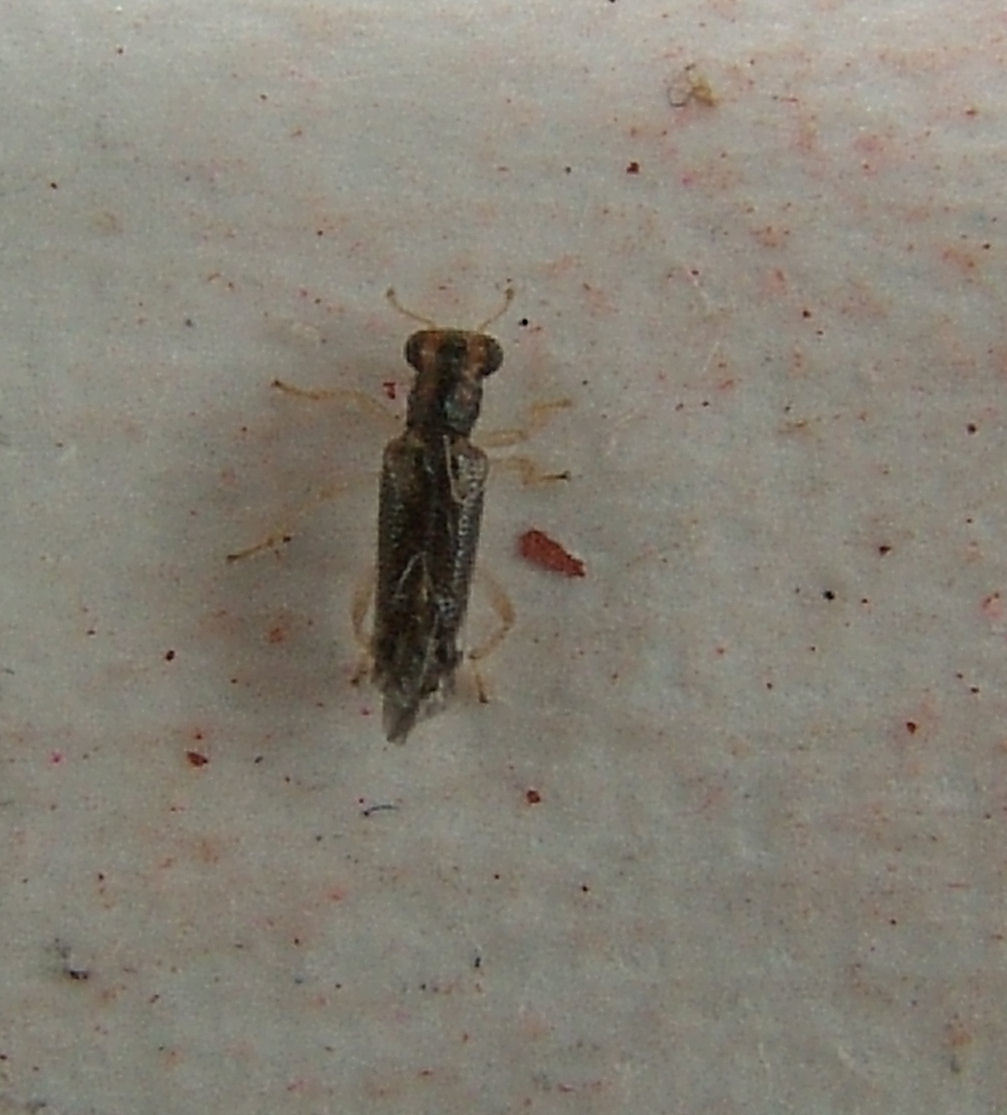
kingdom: Animalia
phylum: Arthropoda
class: Insecta
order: Coleoptera
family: Cleridae
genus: Phyllobaenus
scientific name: Phyllobaenus verticalis
